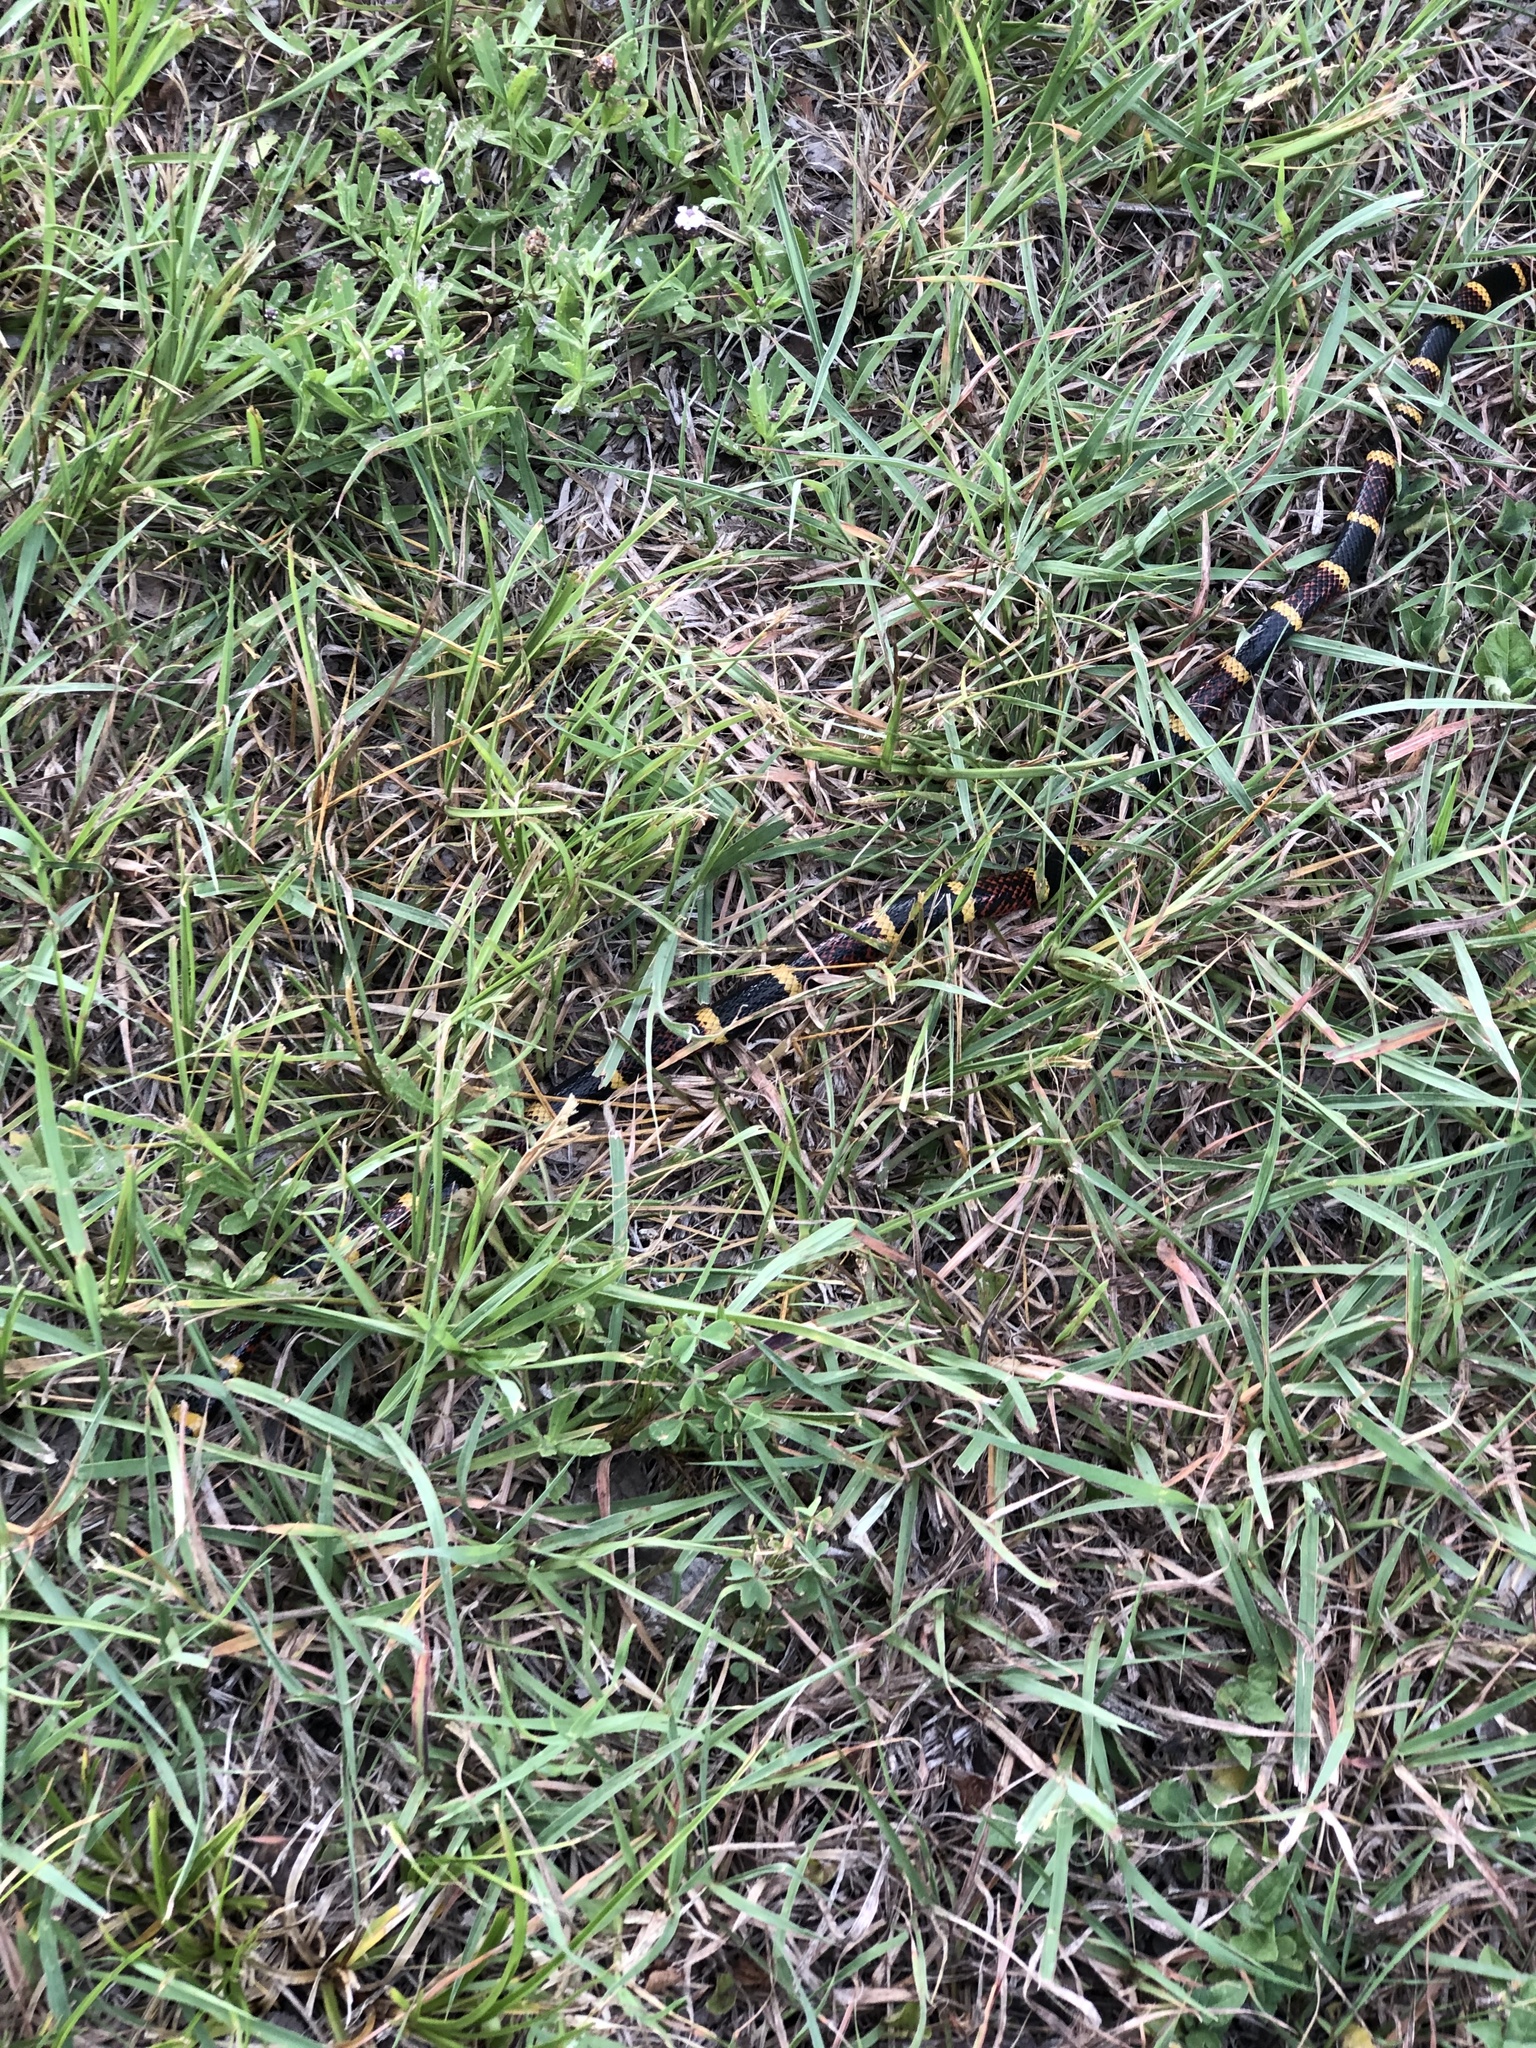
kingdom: Animalia
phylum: Chordata
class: Squamata
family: Elapidae
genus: Micrurus
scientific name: Micrurus tener
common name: Texas coral snake
